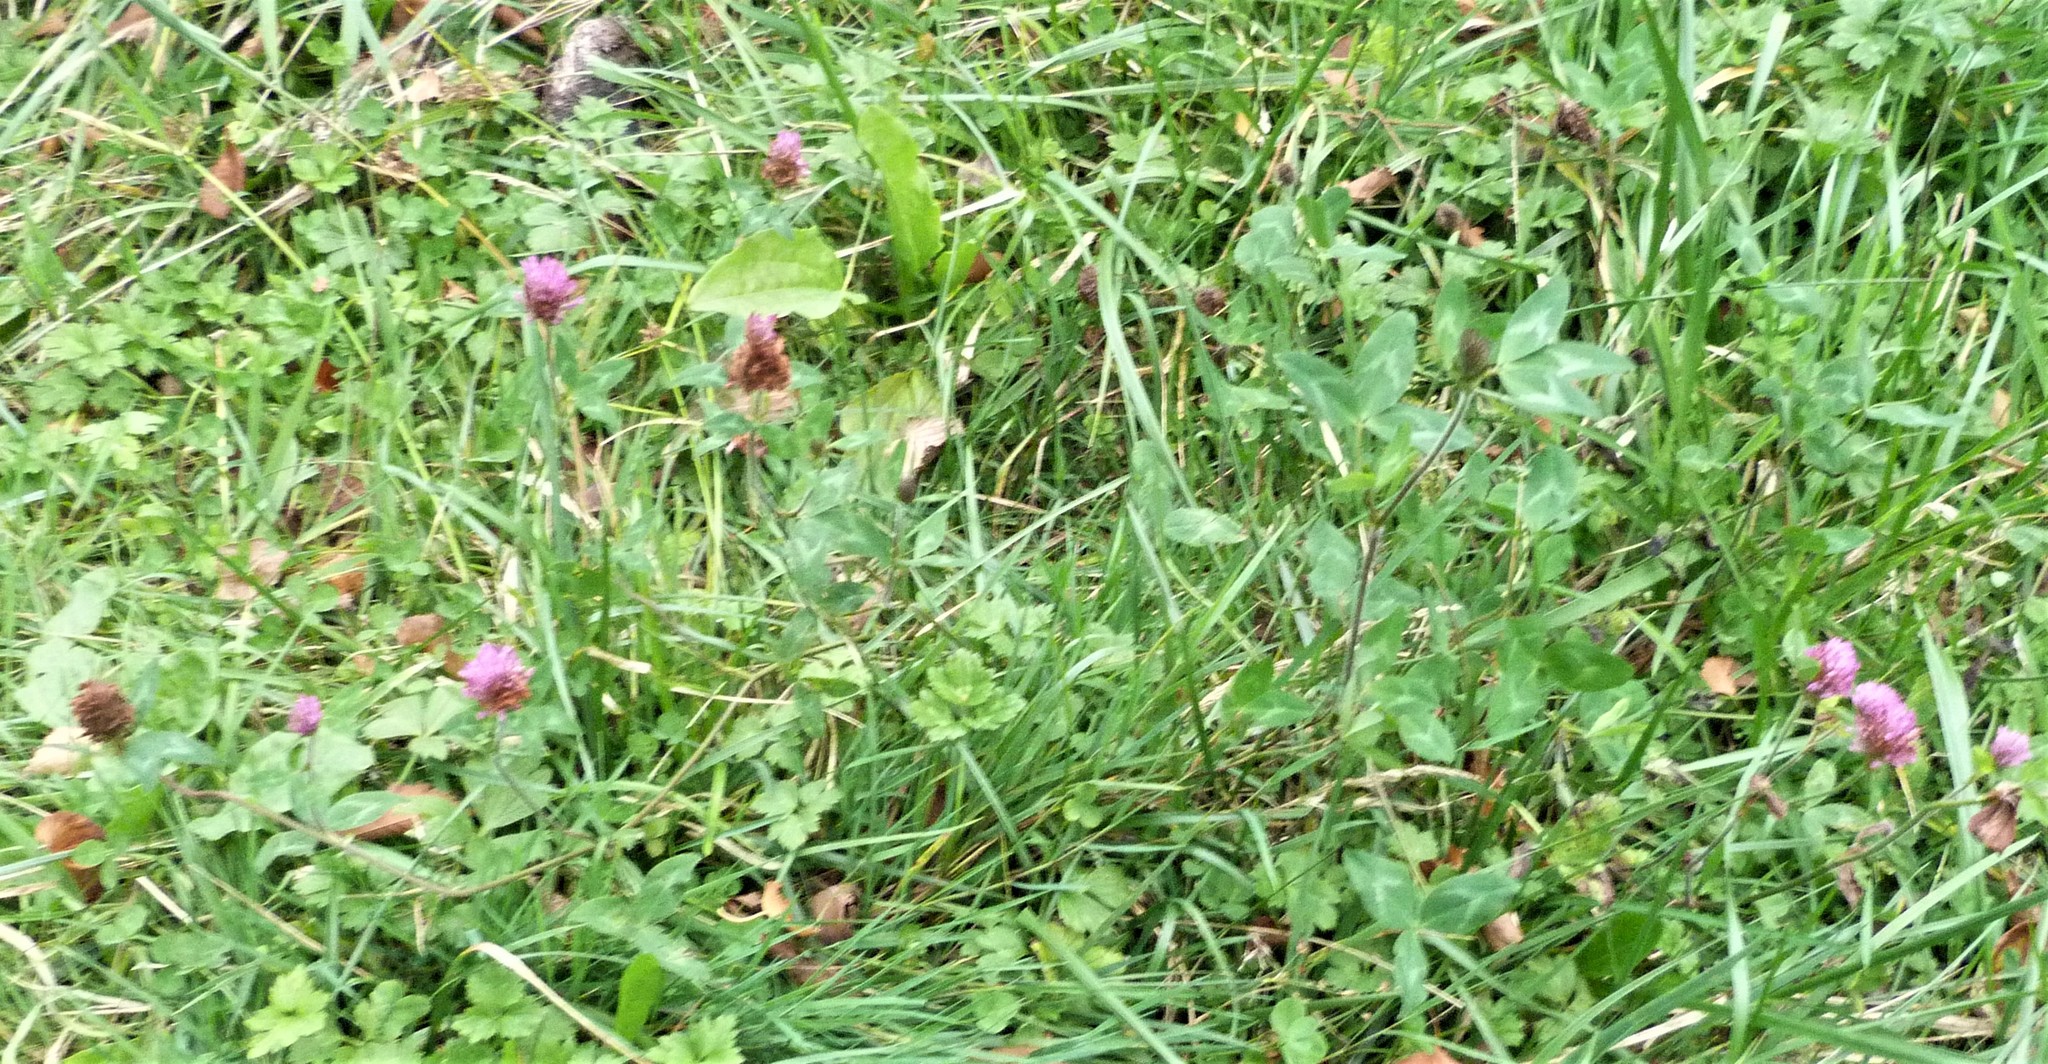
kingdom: Plantae
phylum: Tracheophyta
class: Magnoliopsida
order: Fabales
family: Fabaceae
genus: Trifolium
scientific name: Trifolium pratense
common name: Red clover
